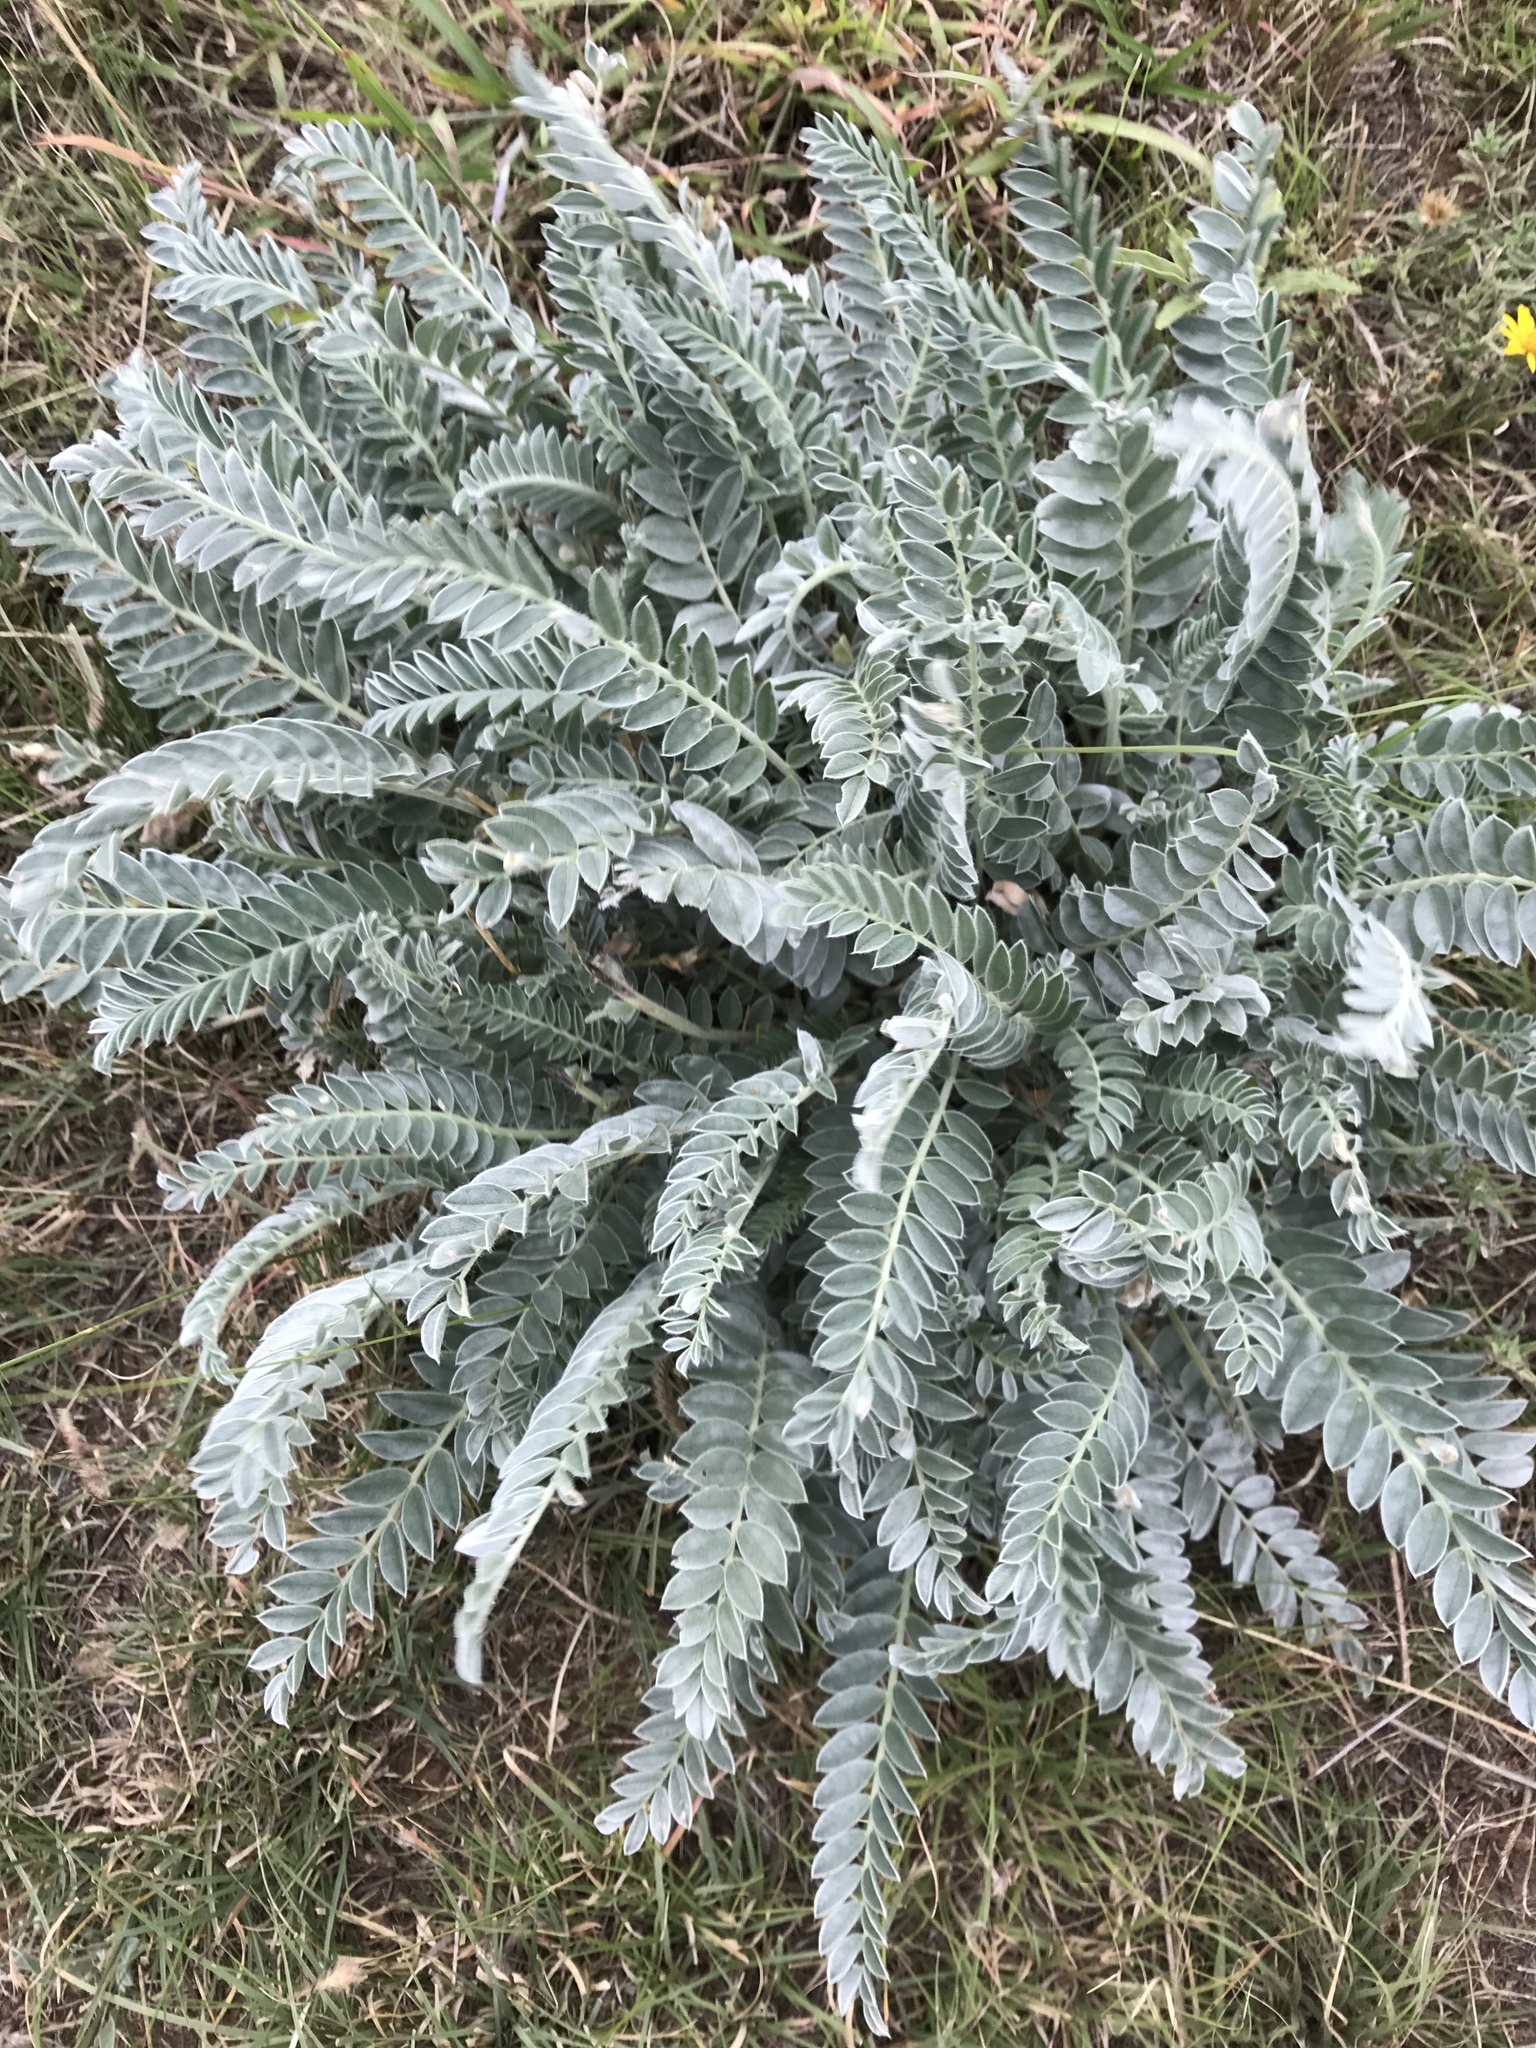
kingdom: Plantae
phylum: Tracheophyta
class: Magnoliopsida
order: Fabales
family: Fabaceae
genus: Astragalus
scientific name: Astragalus mollissimus
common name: Woolly locoweed
